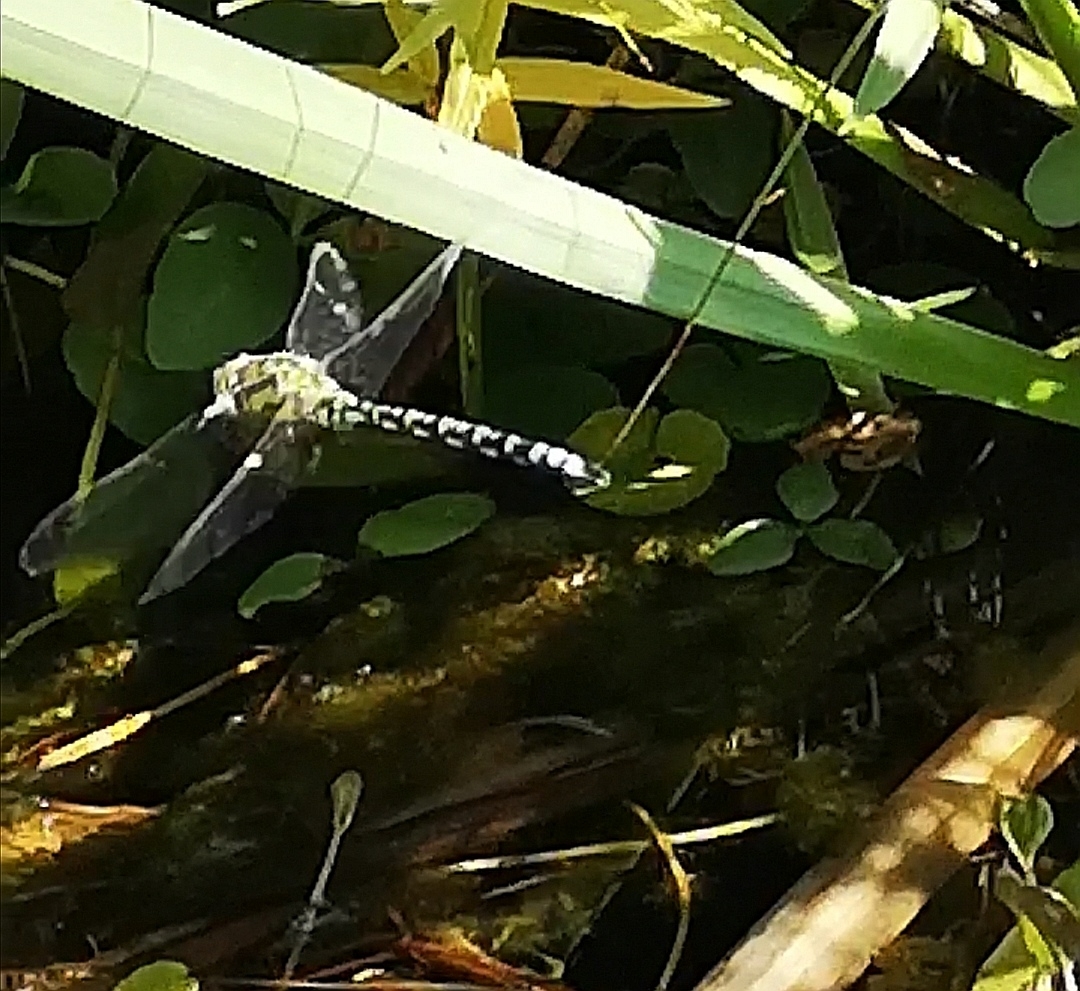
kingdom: Animalia
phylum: Arthropoda
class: Insecta
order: Odonata
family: Aeshnidae
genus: Aeshna
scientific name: Aeshna cyanea
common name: Southern hawker
